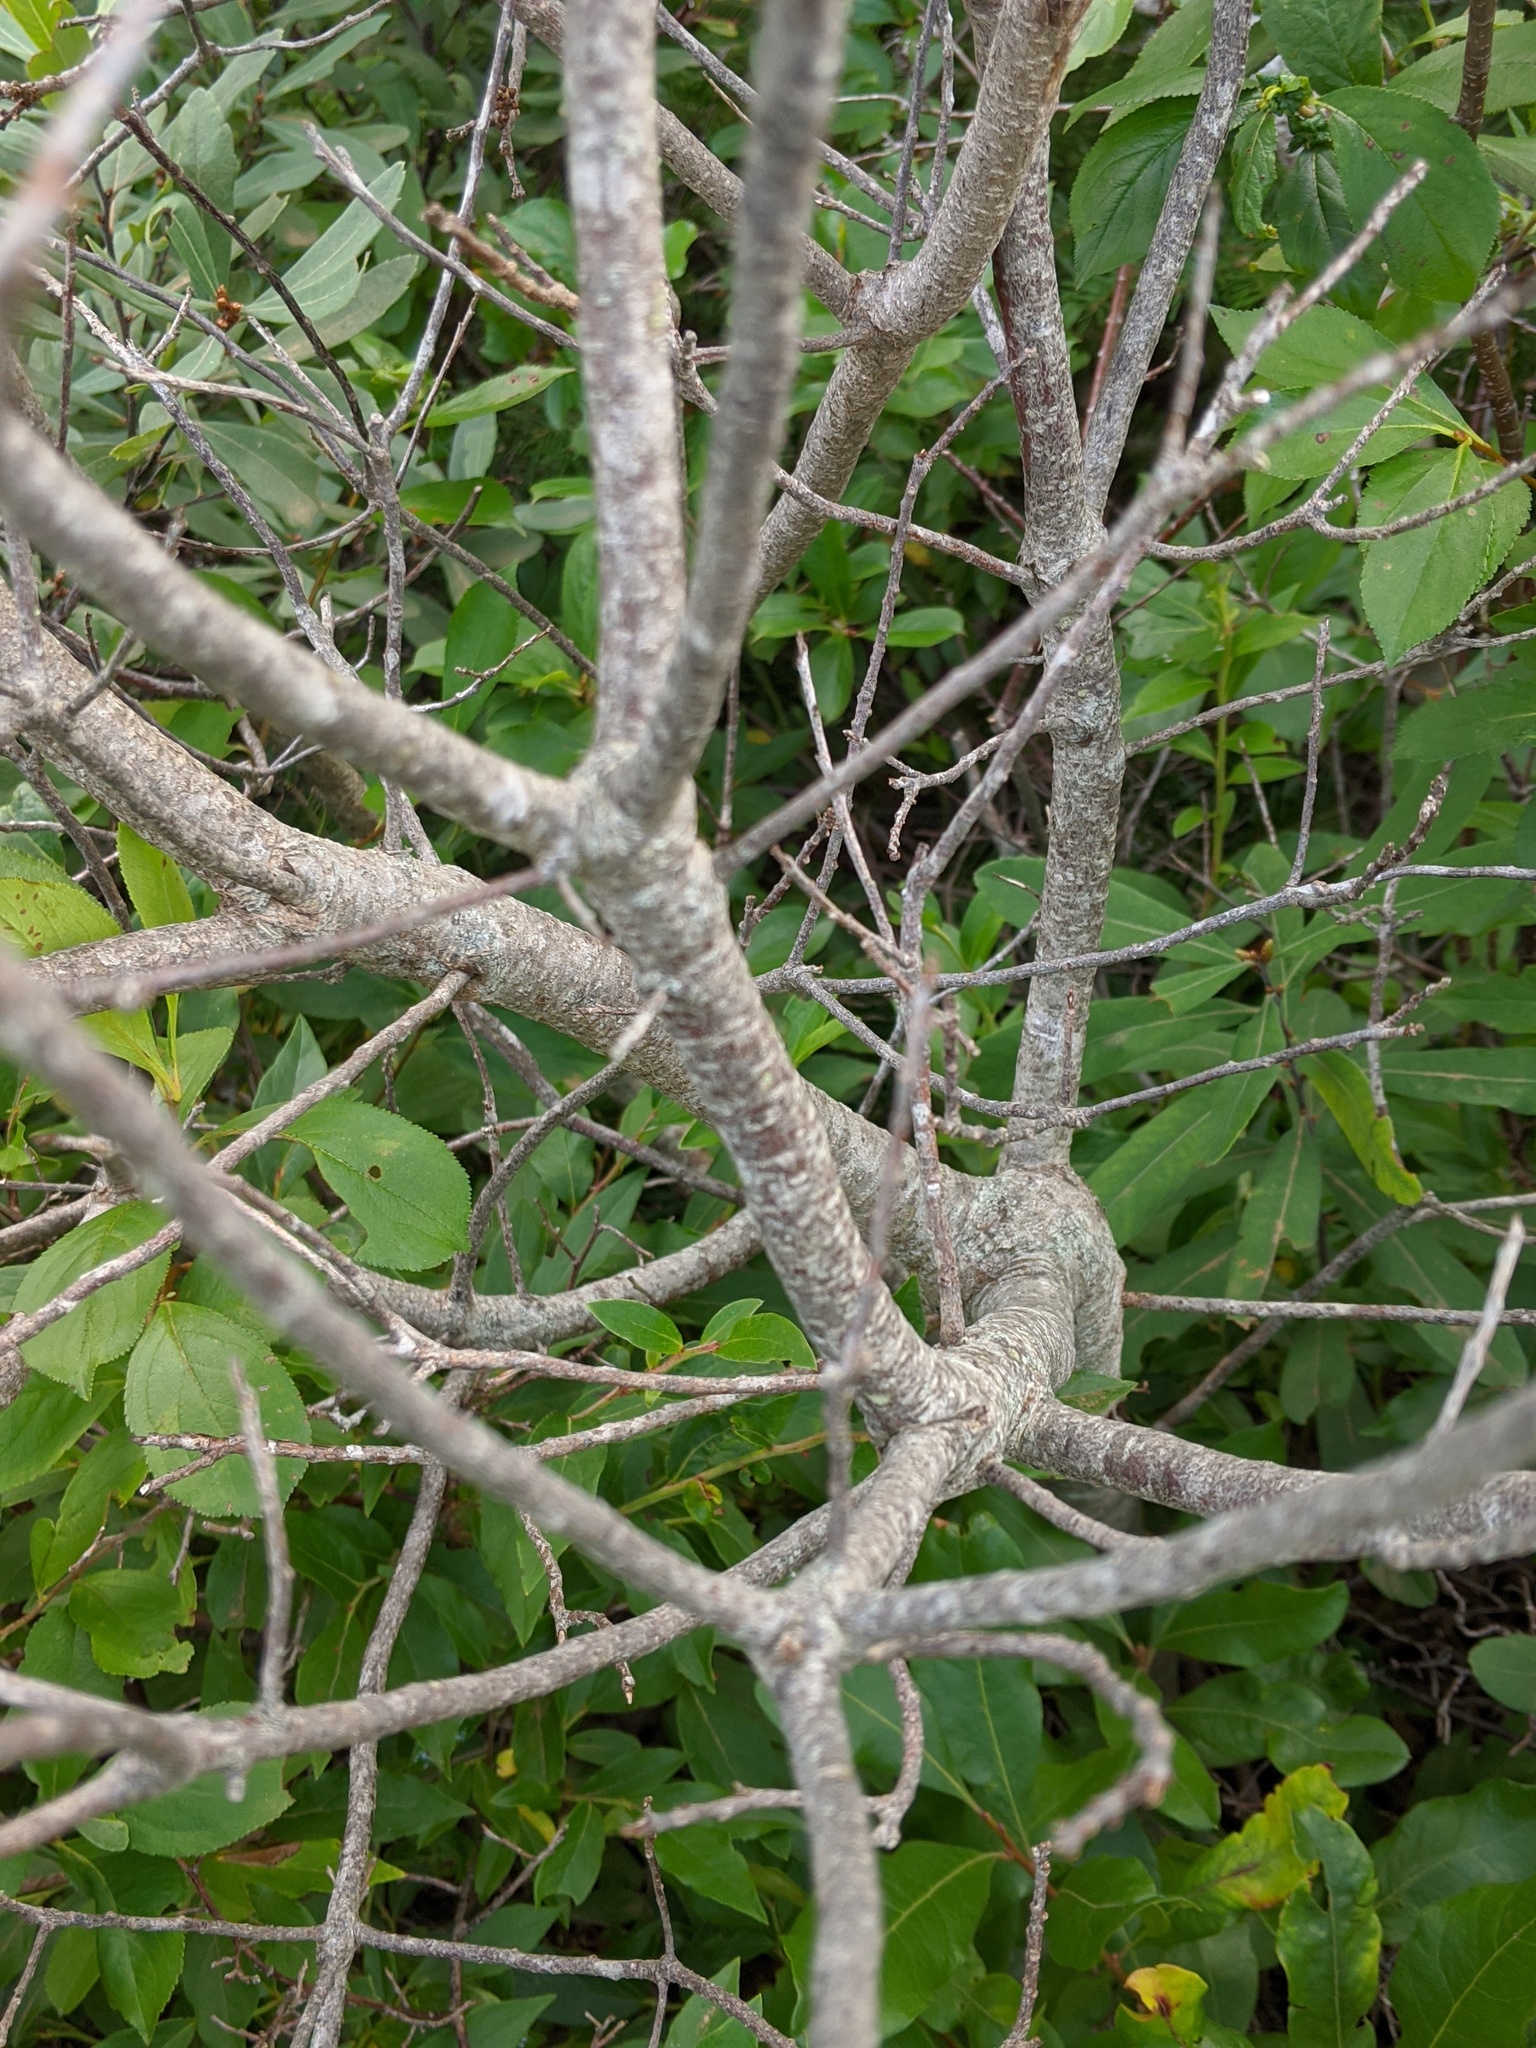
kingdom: Plantae
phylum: Tracheophyta
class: Magnoliopsida
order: Fagales
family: Myricaceae
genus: Morella
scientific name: Morella pensylvanica
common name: Northern bayberry
